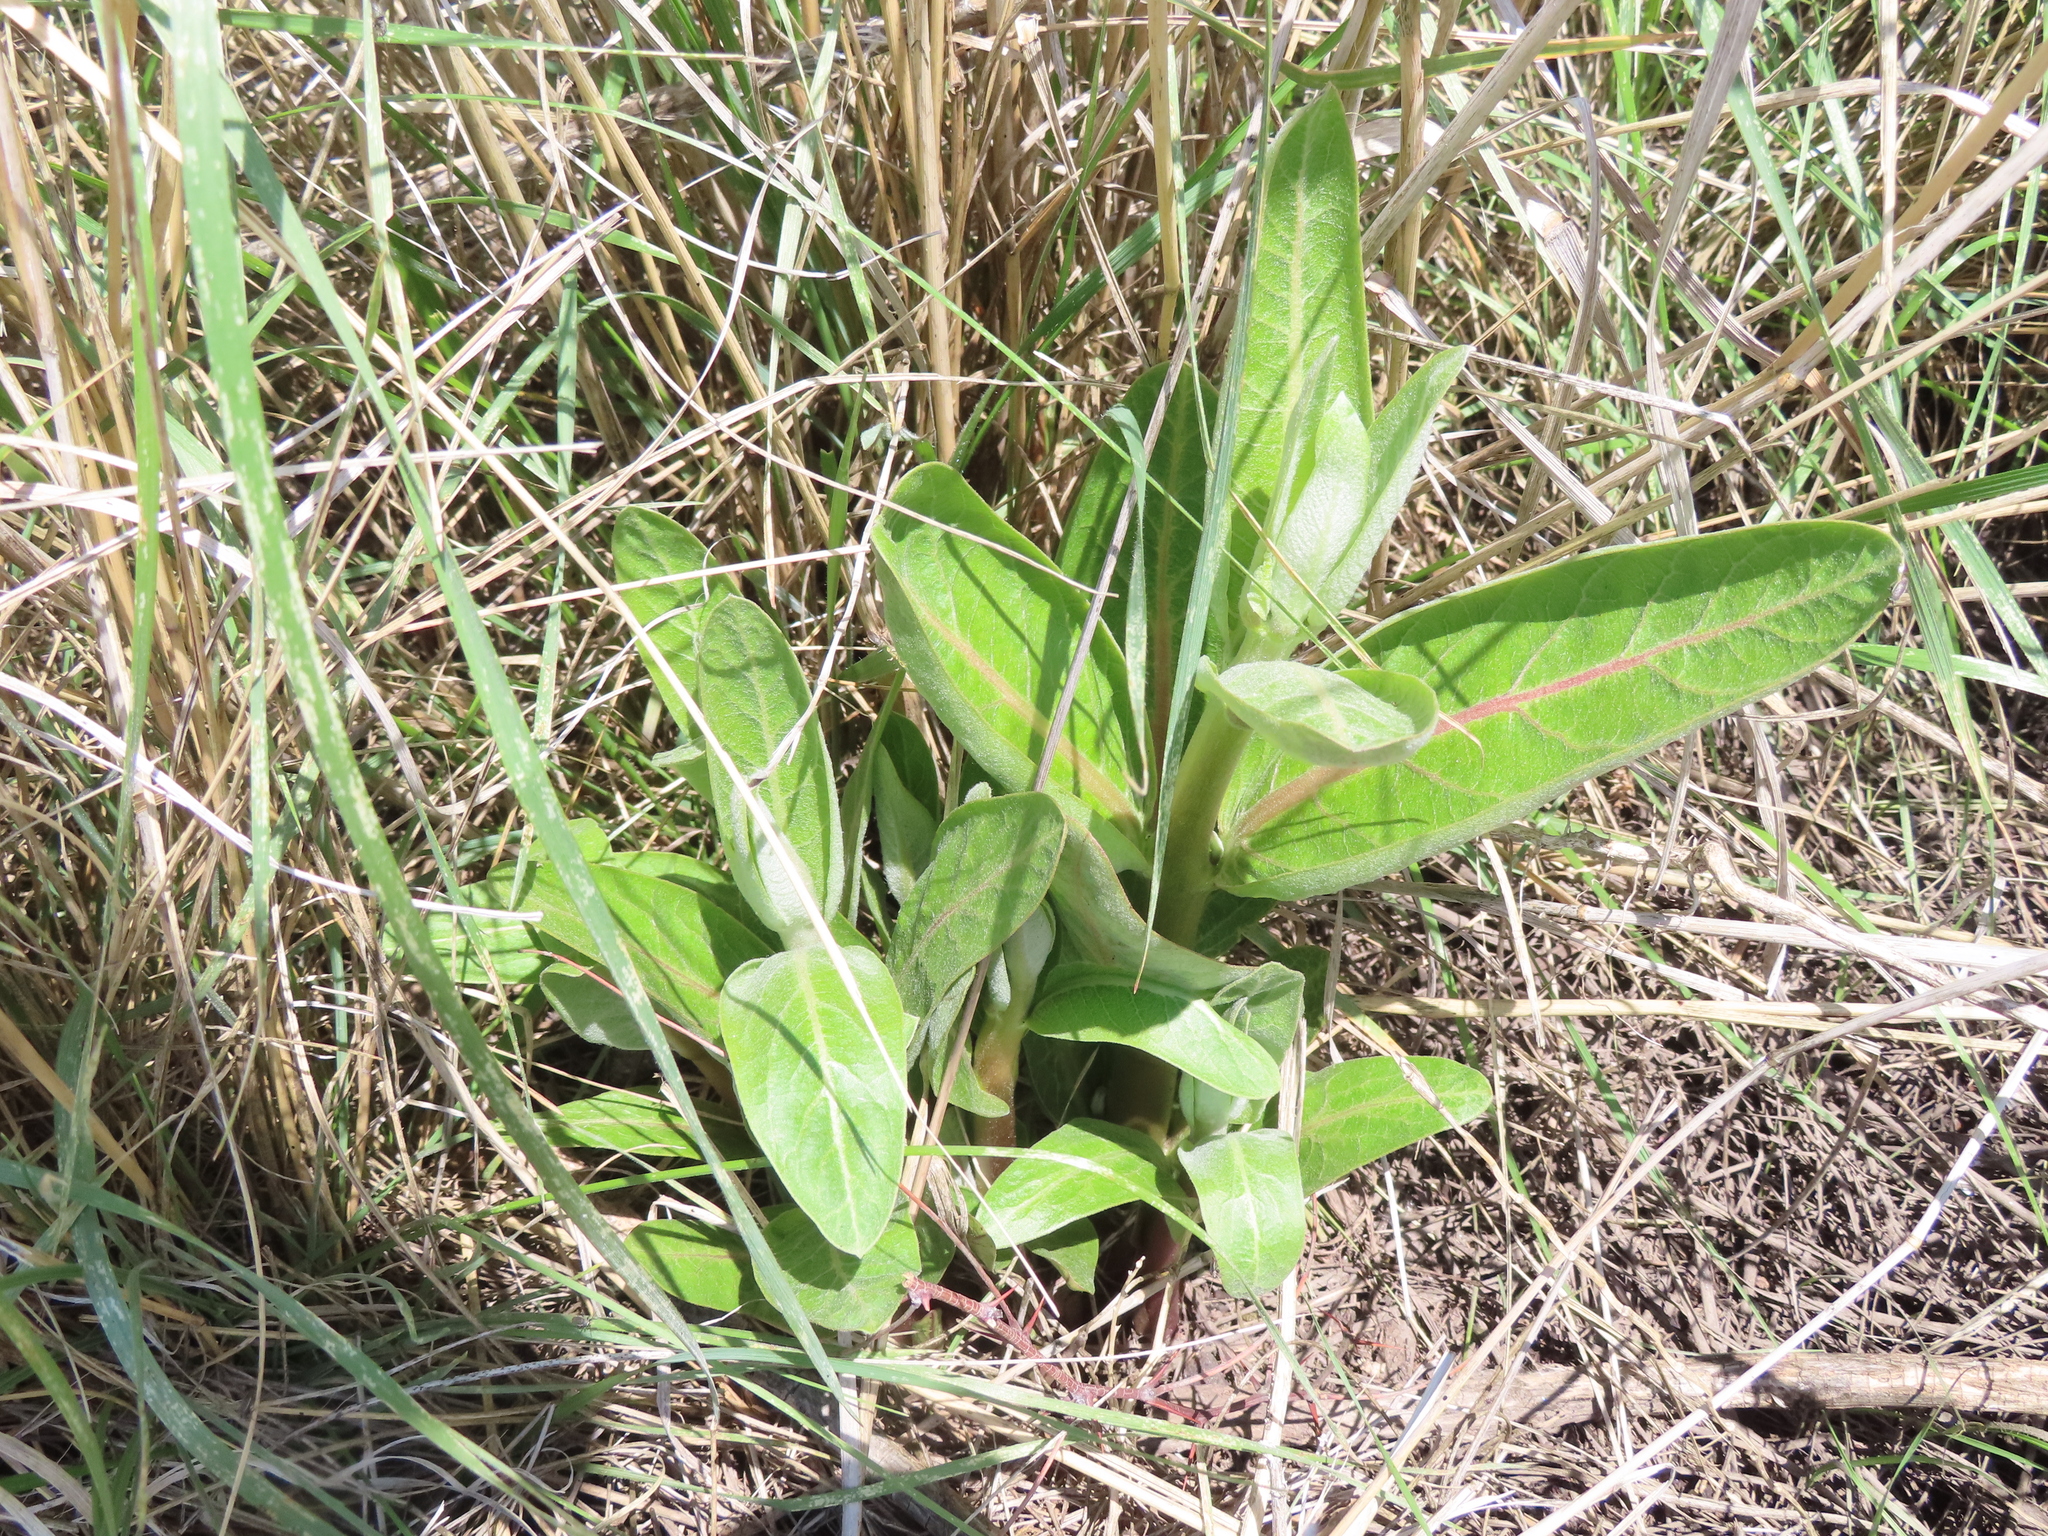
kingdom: Plantae
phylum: Tracheophyta
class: Magnoliopsida
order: Gentianales
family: Apocynaceae
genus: Asclepias
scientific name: Asclepias speciosa
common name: Showy milkweed
